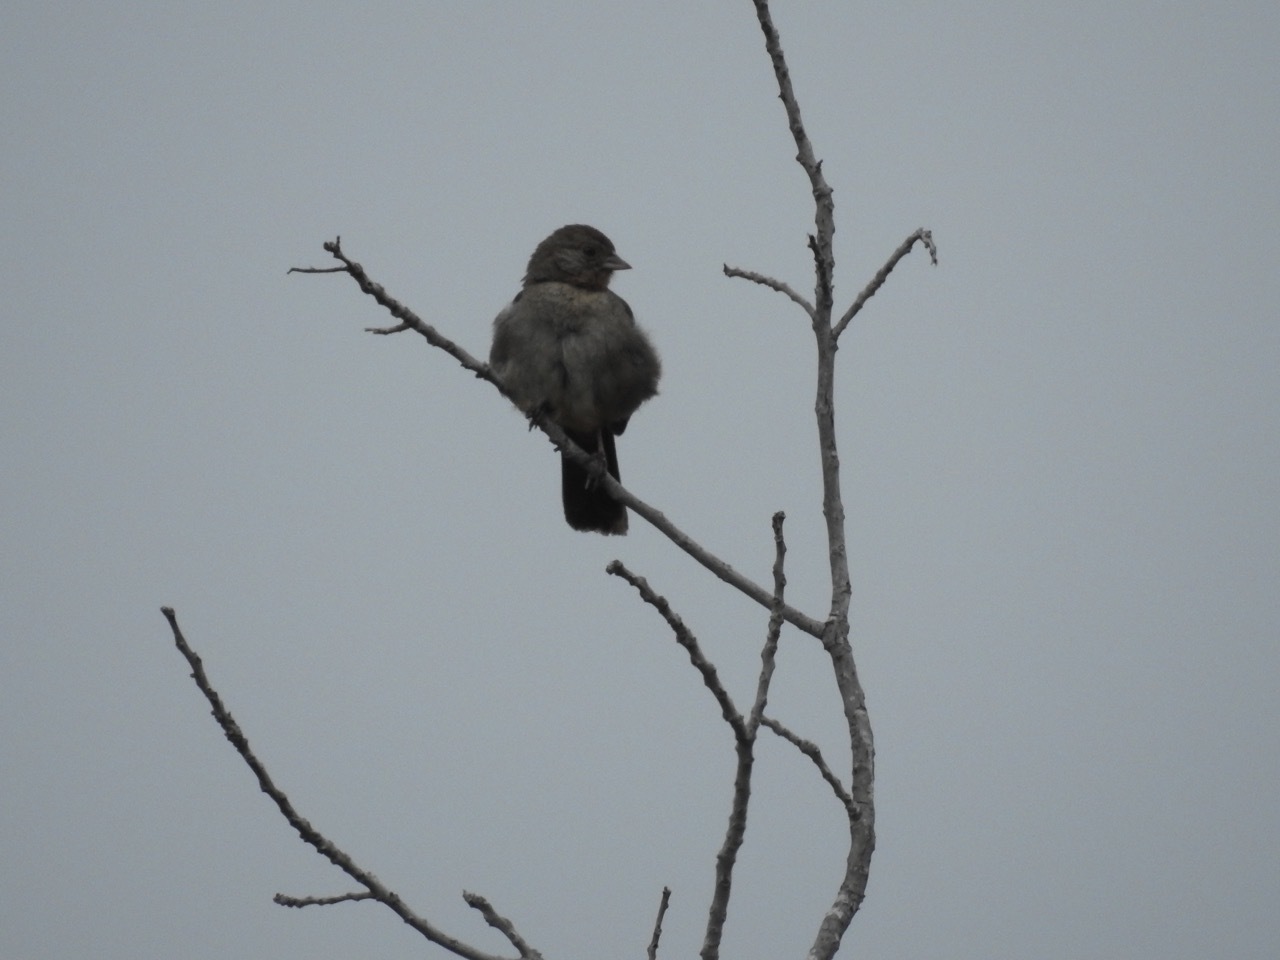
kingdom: Animalia
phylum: Chordata
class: Aves
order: Passeriformes
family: Passerellidae
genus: Melozone
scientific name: Melozone crissalis
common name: California towhee
